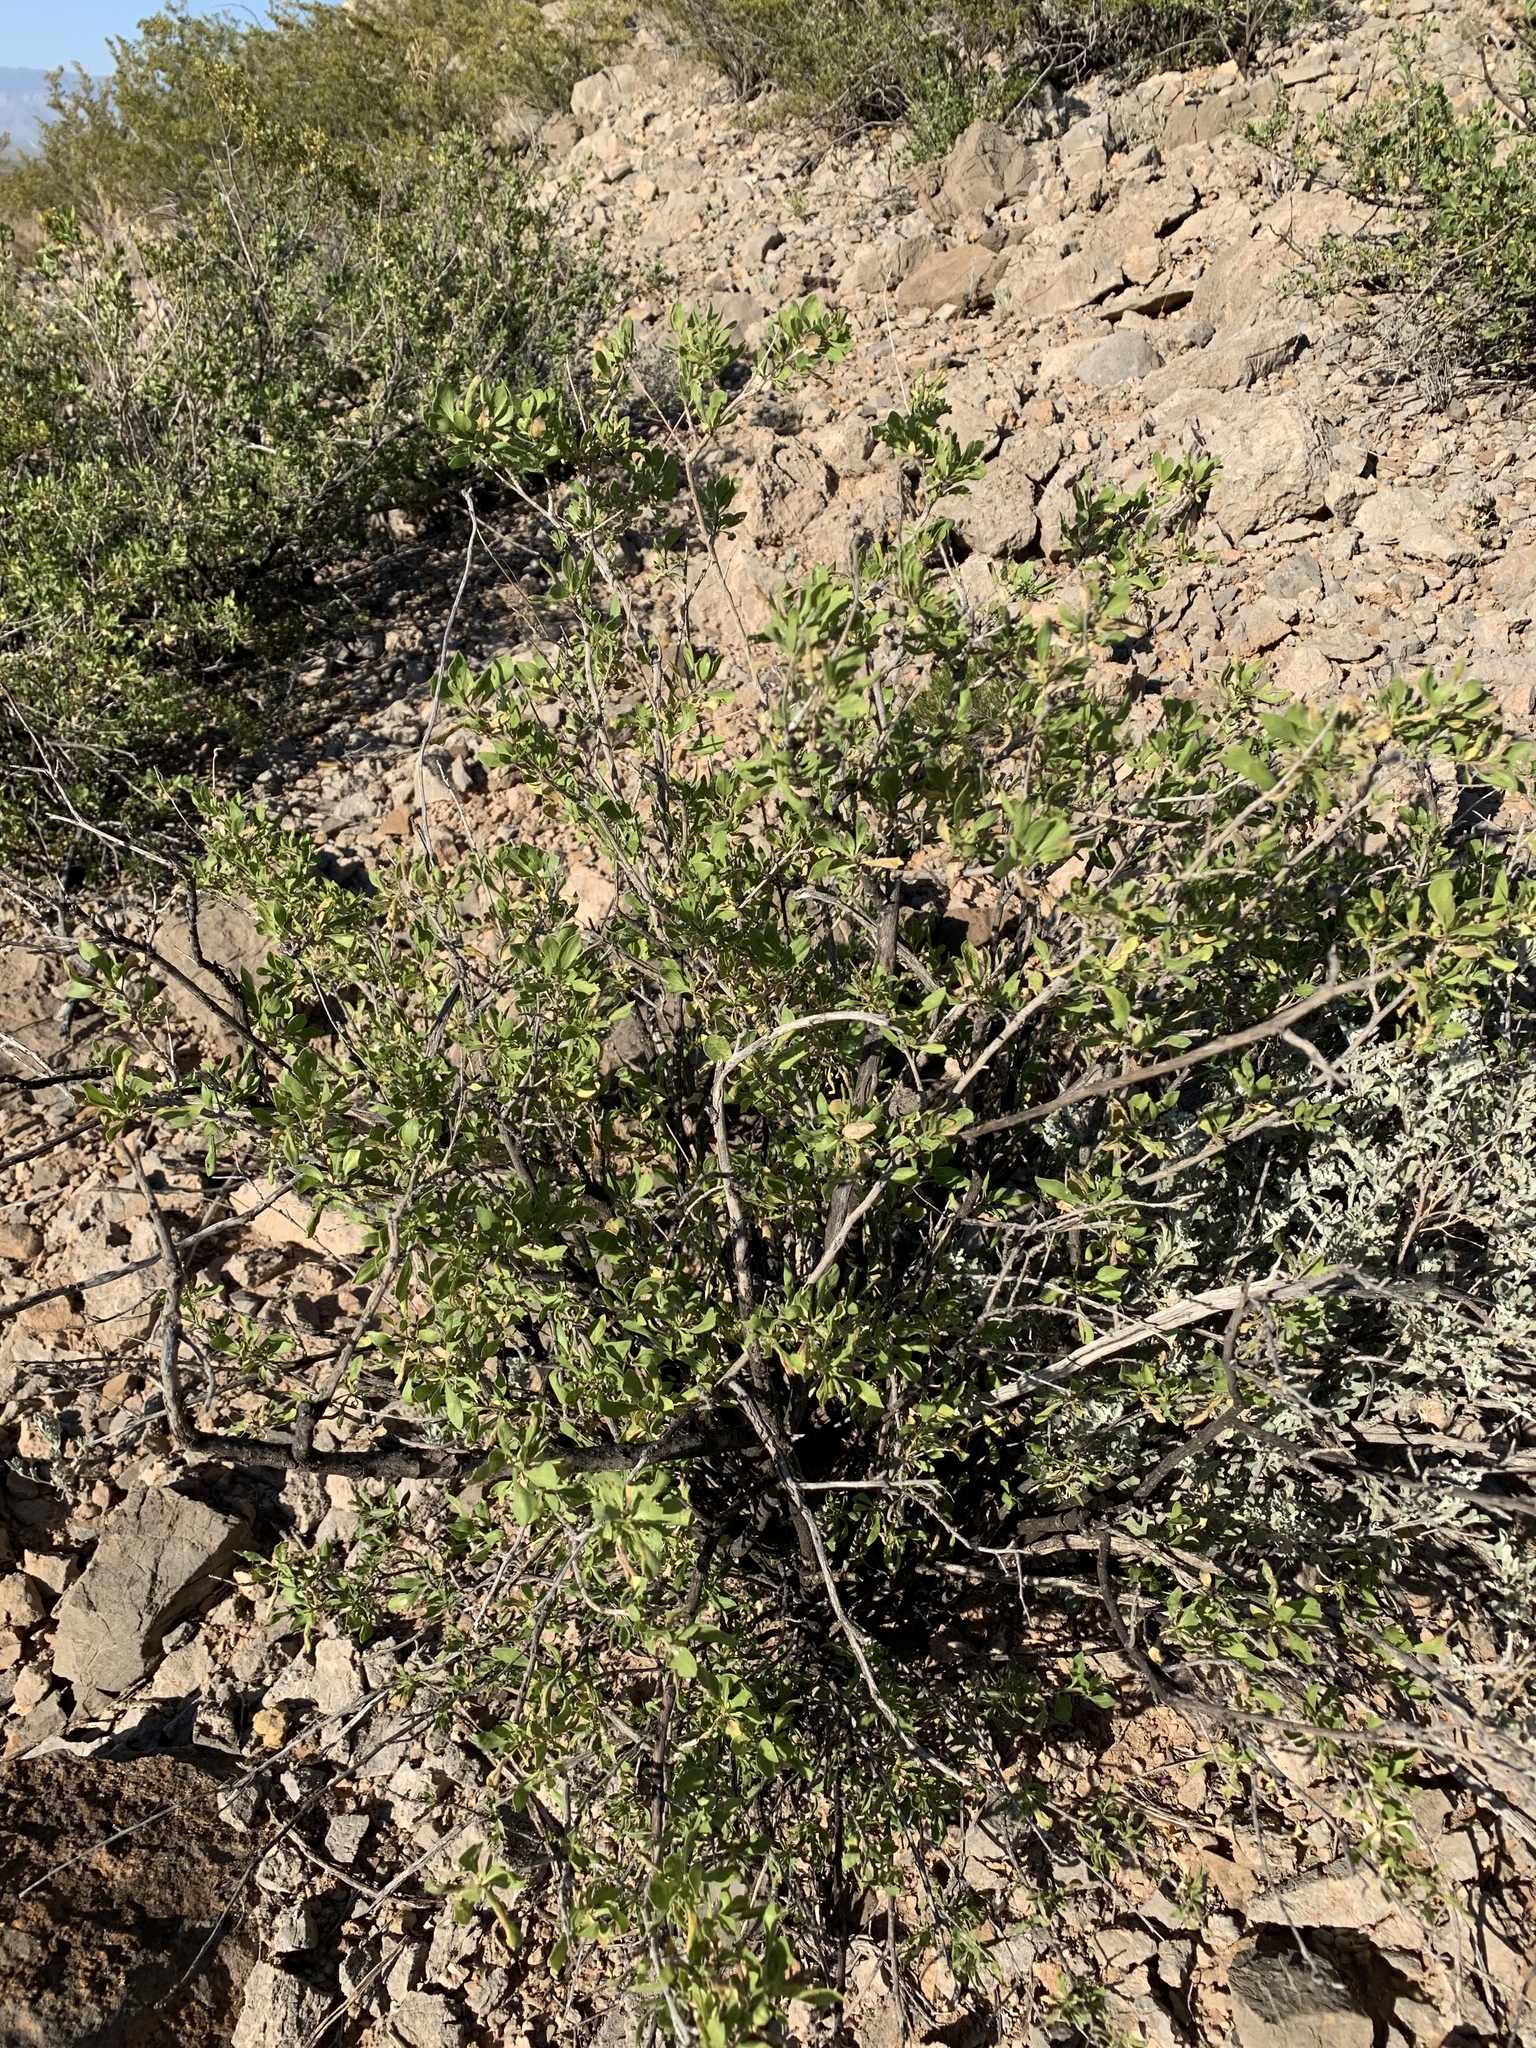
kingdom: Plantae
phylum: Tracheophyta
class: Magnoliopsida
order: Asterales
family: Asteraceae
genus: Flourensia
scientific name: Flourensia cernua
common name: Varnishbush
